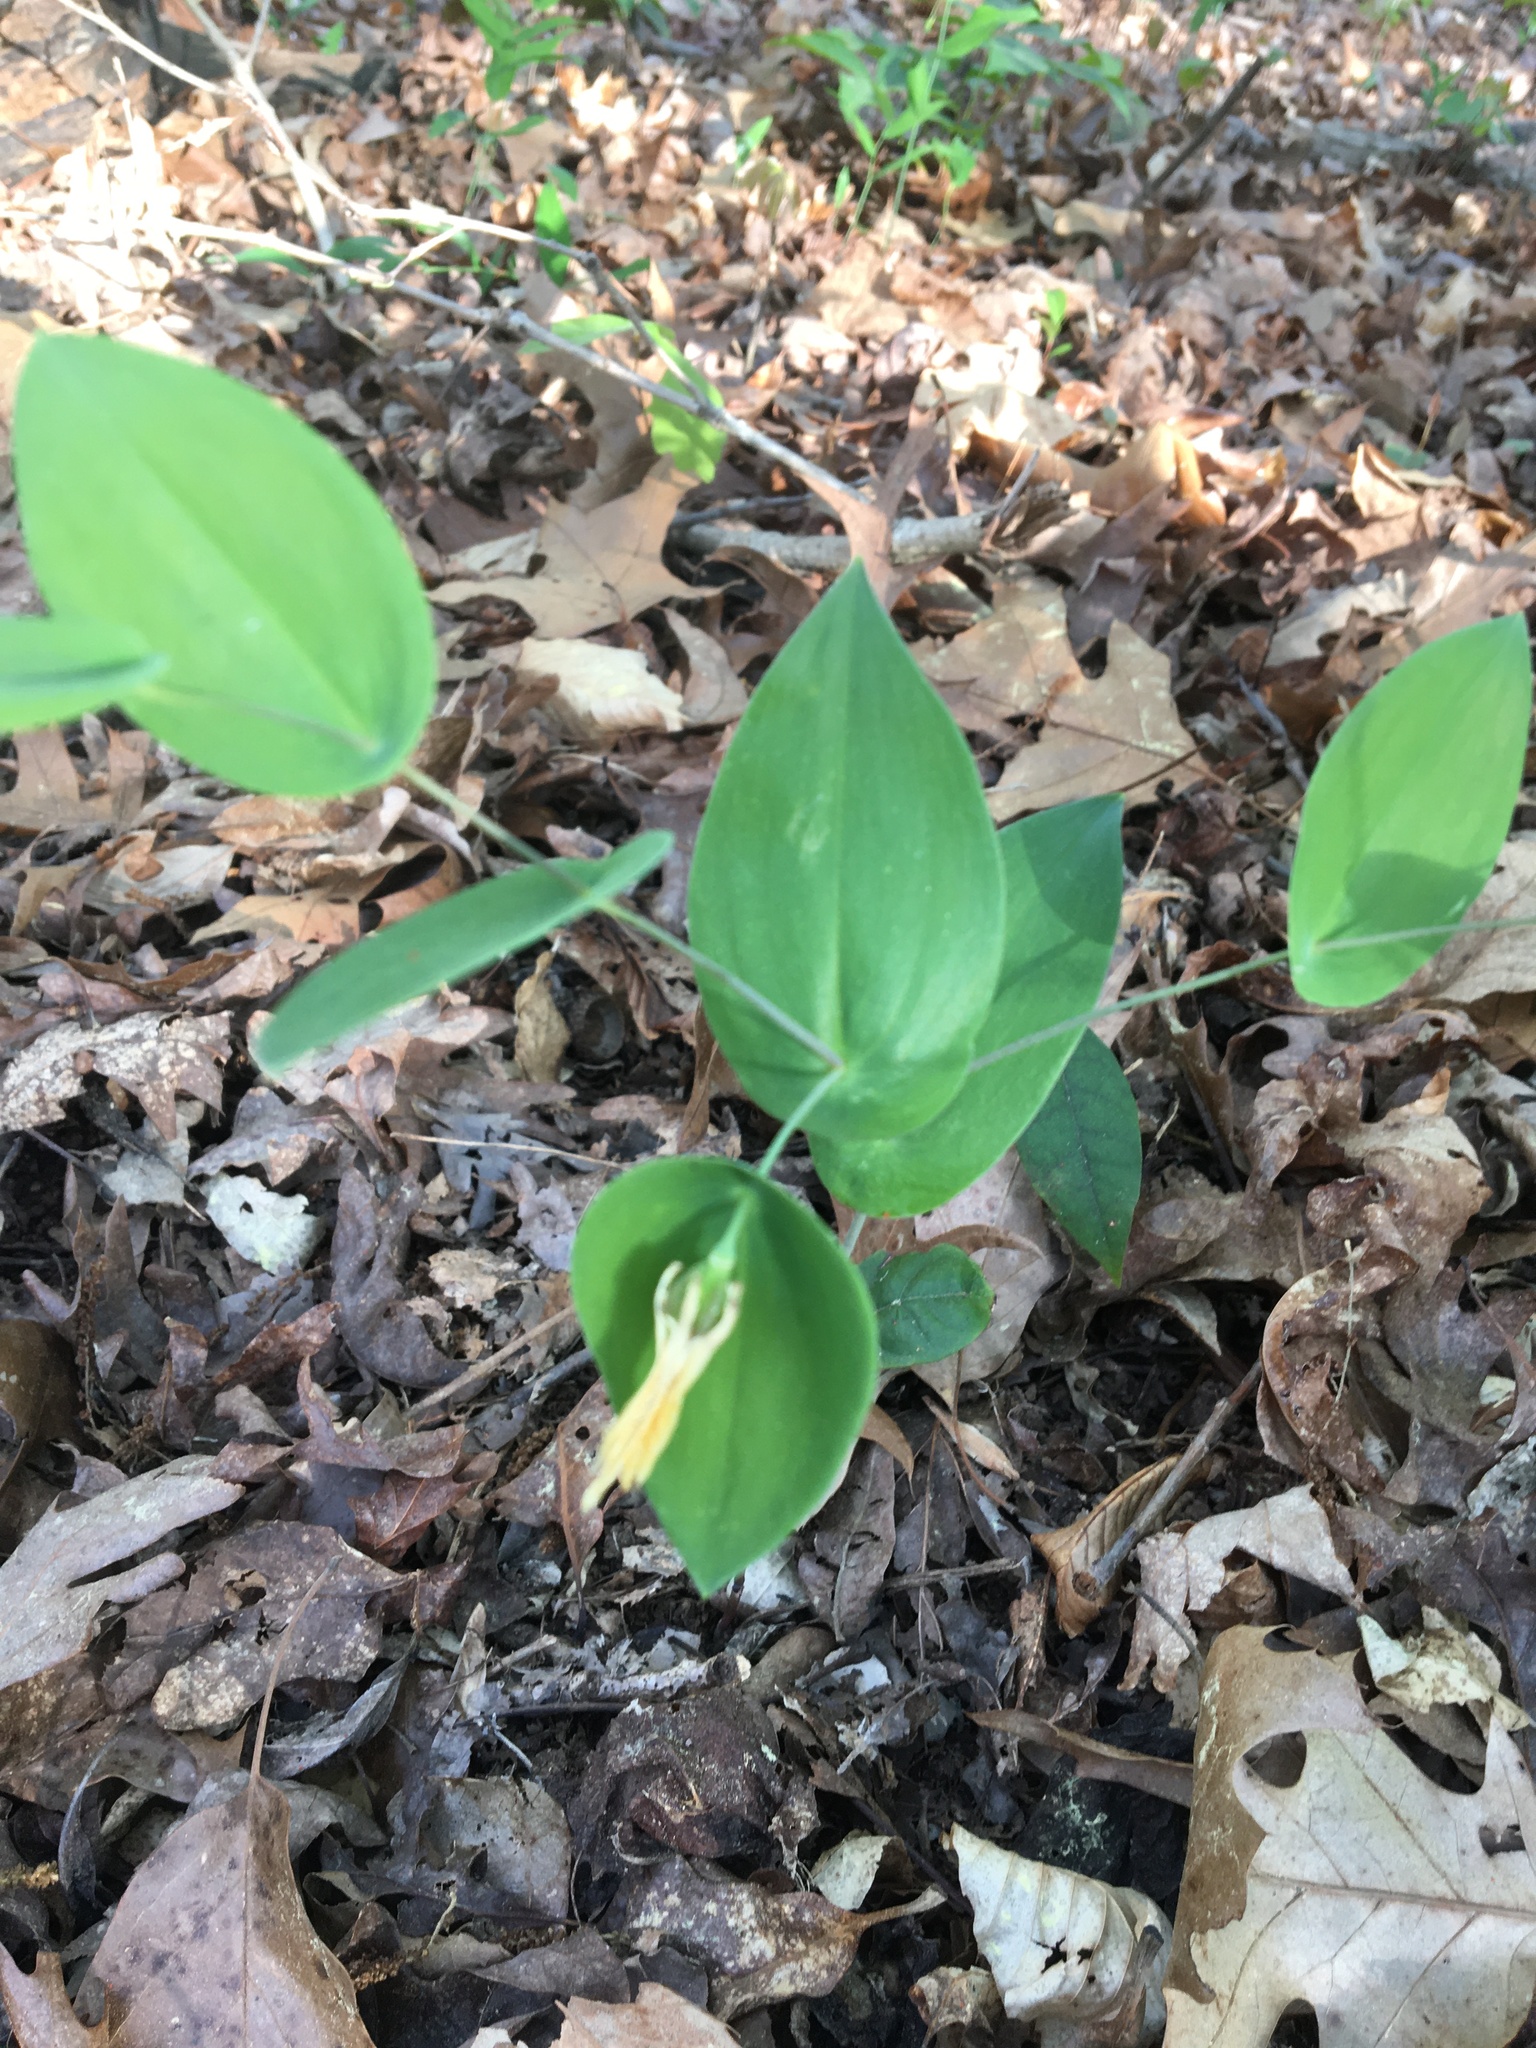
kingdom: Plantae
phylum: Tracheophyta
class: Liliopsida
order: Liliales
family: Colchicaceae
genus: Uvularia
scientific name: Uvularia perfoliata
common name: Perfoliate bellwort
